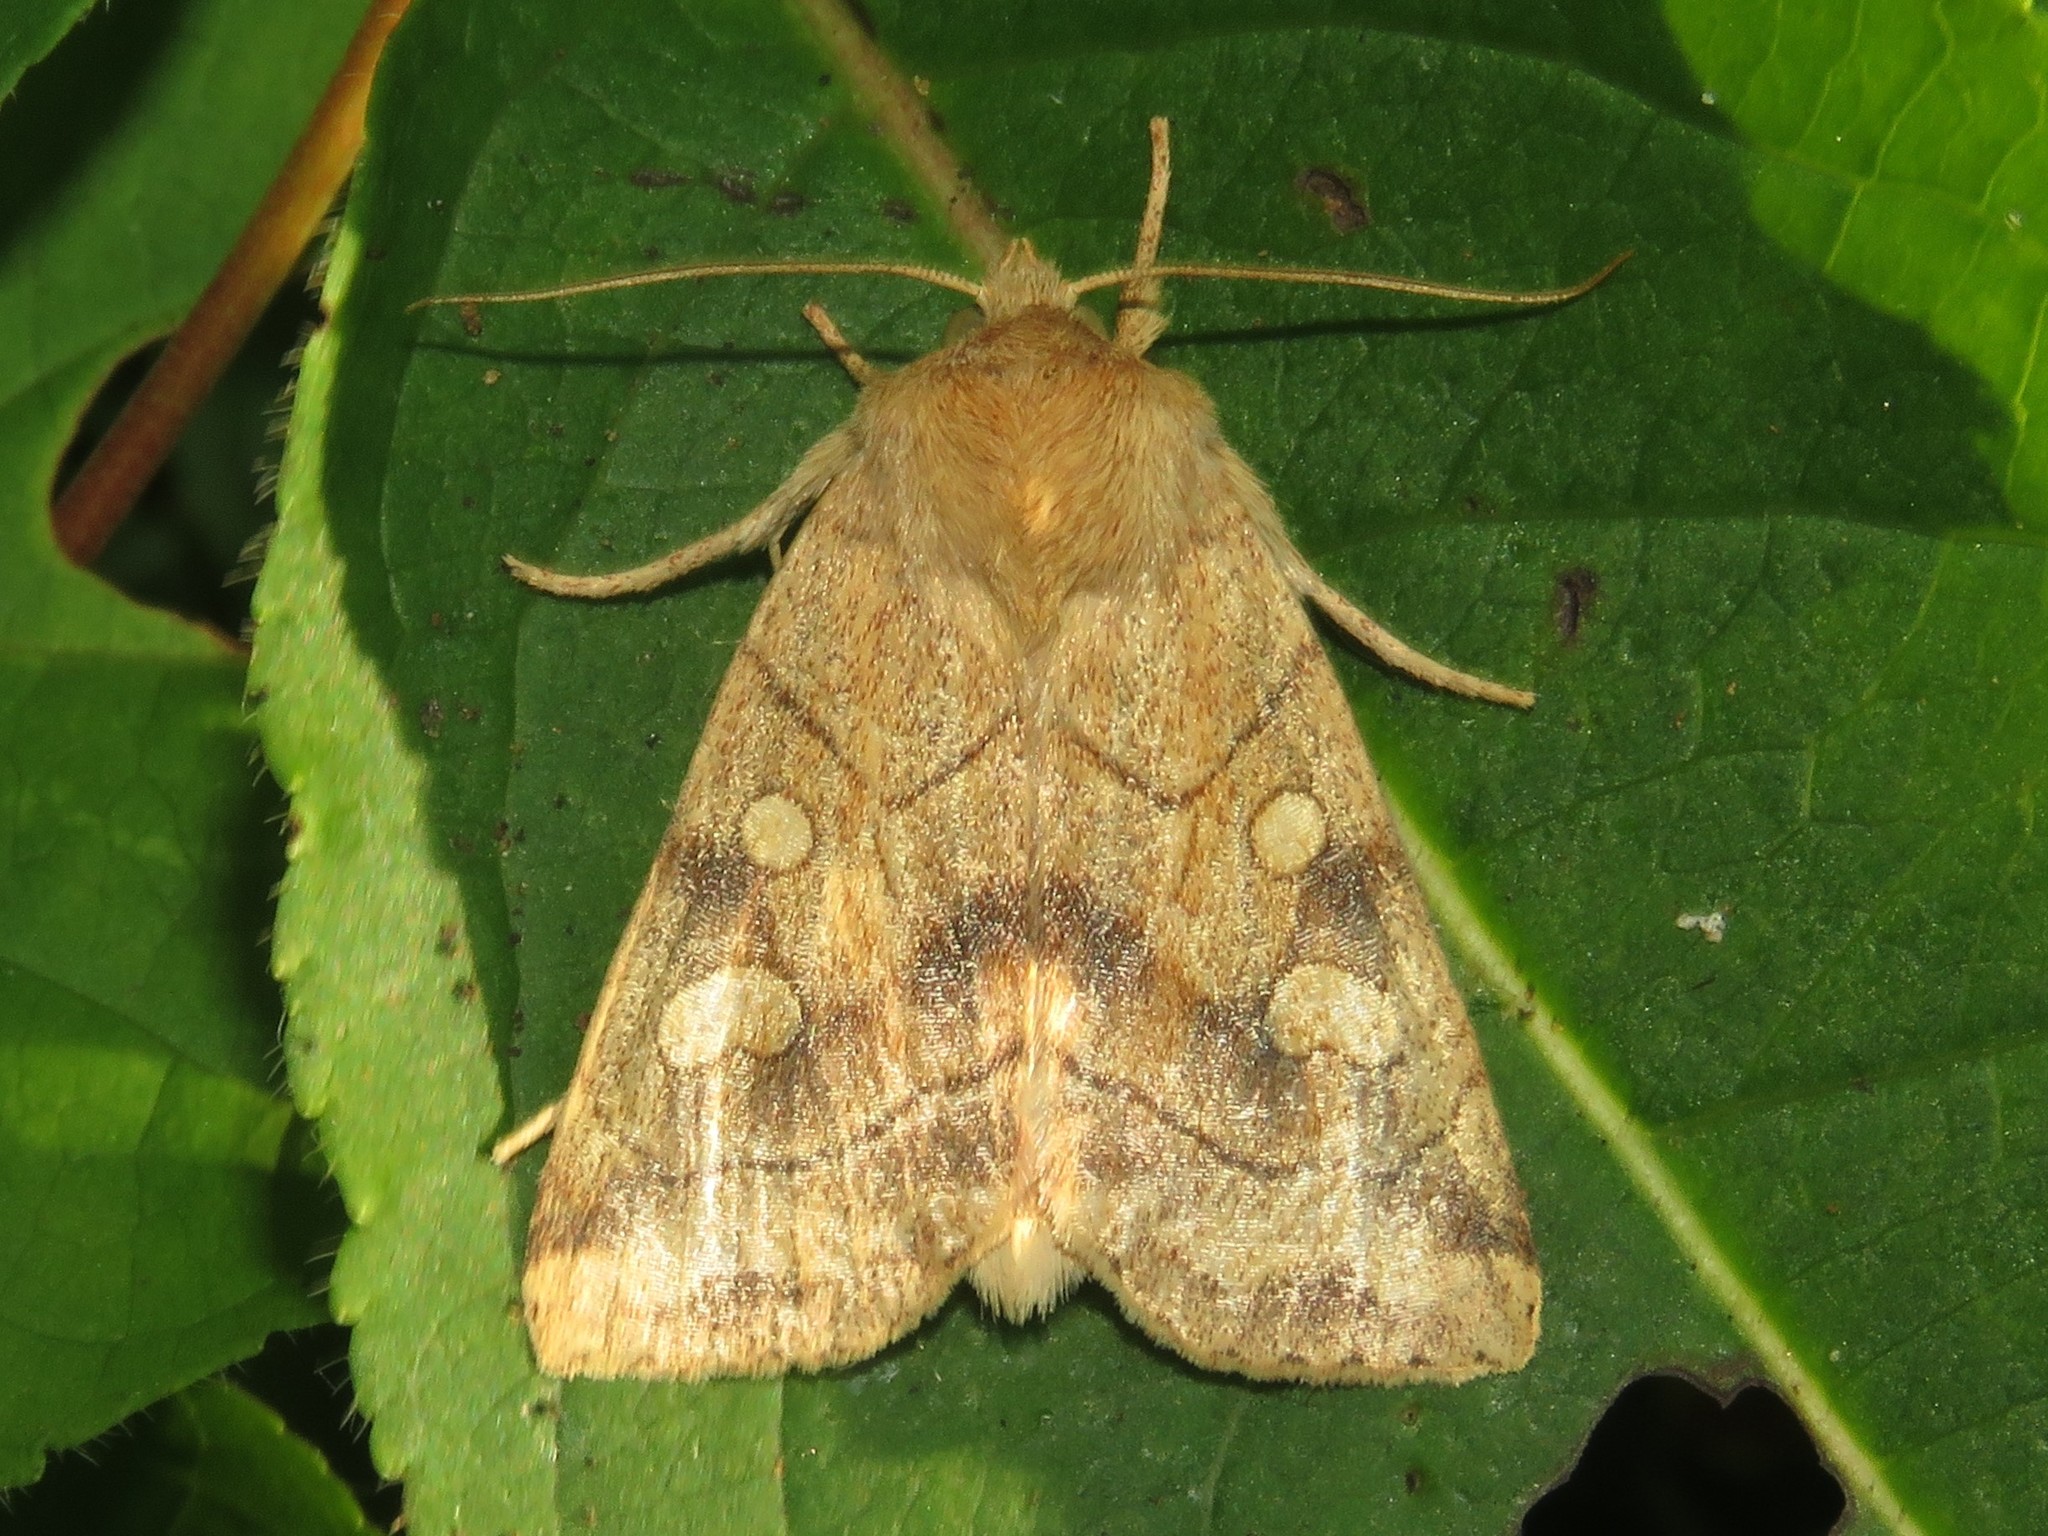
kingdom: Animalia
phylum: Arthropoda
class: Insecta
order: Lepidoptera
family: Noctuidae
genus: Enargia
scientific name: Enargia decolor
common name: Aspen twoleaf tier moth
